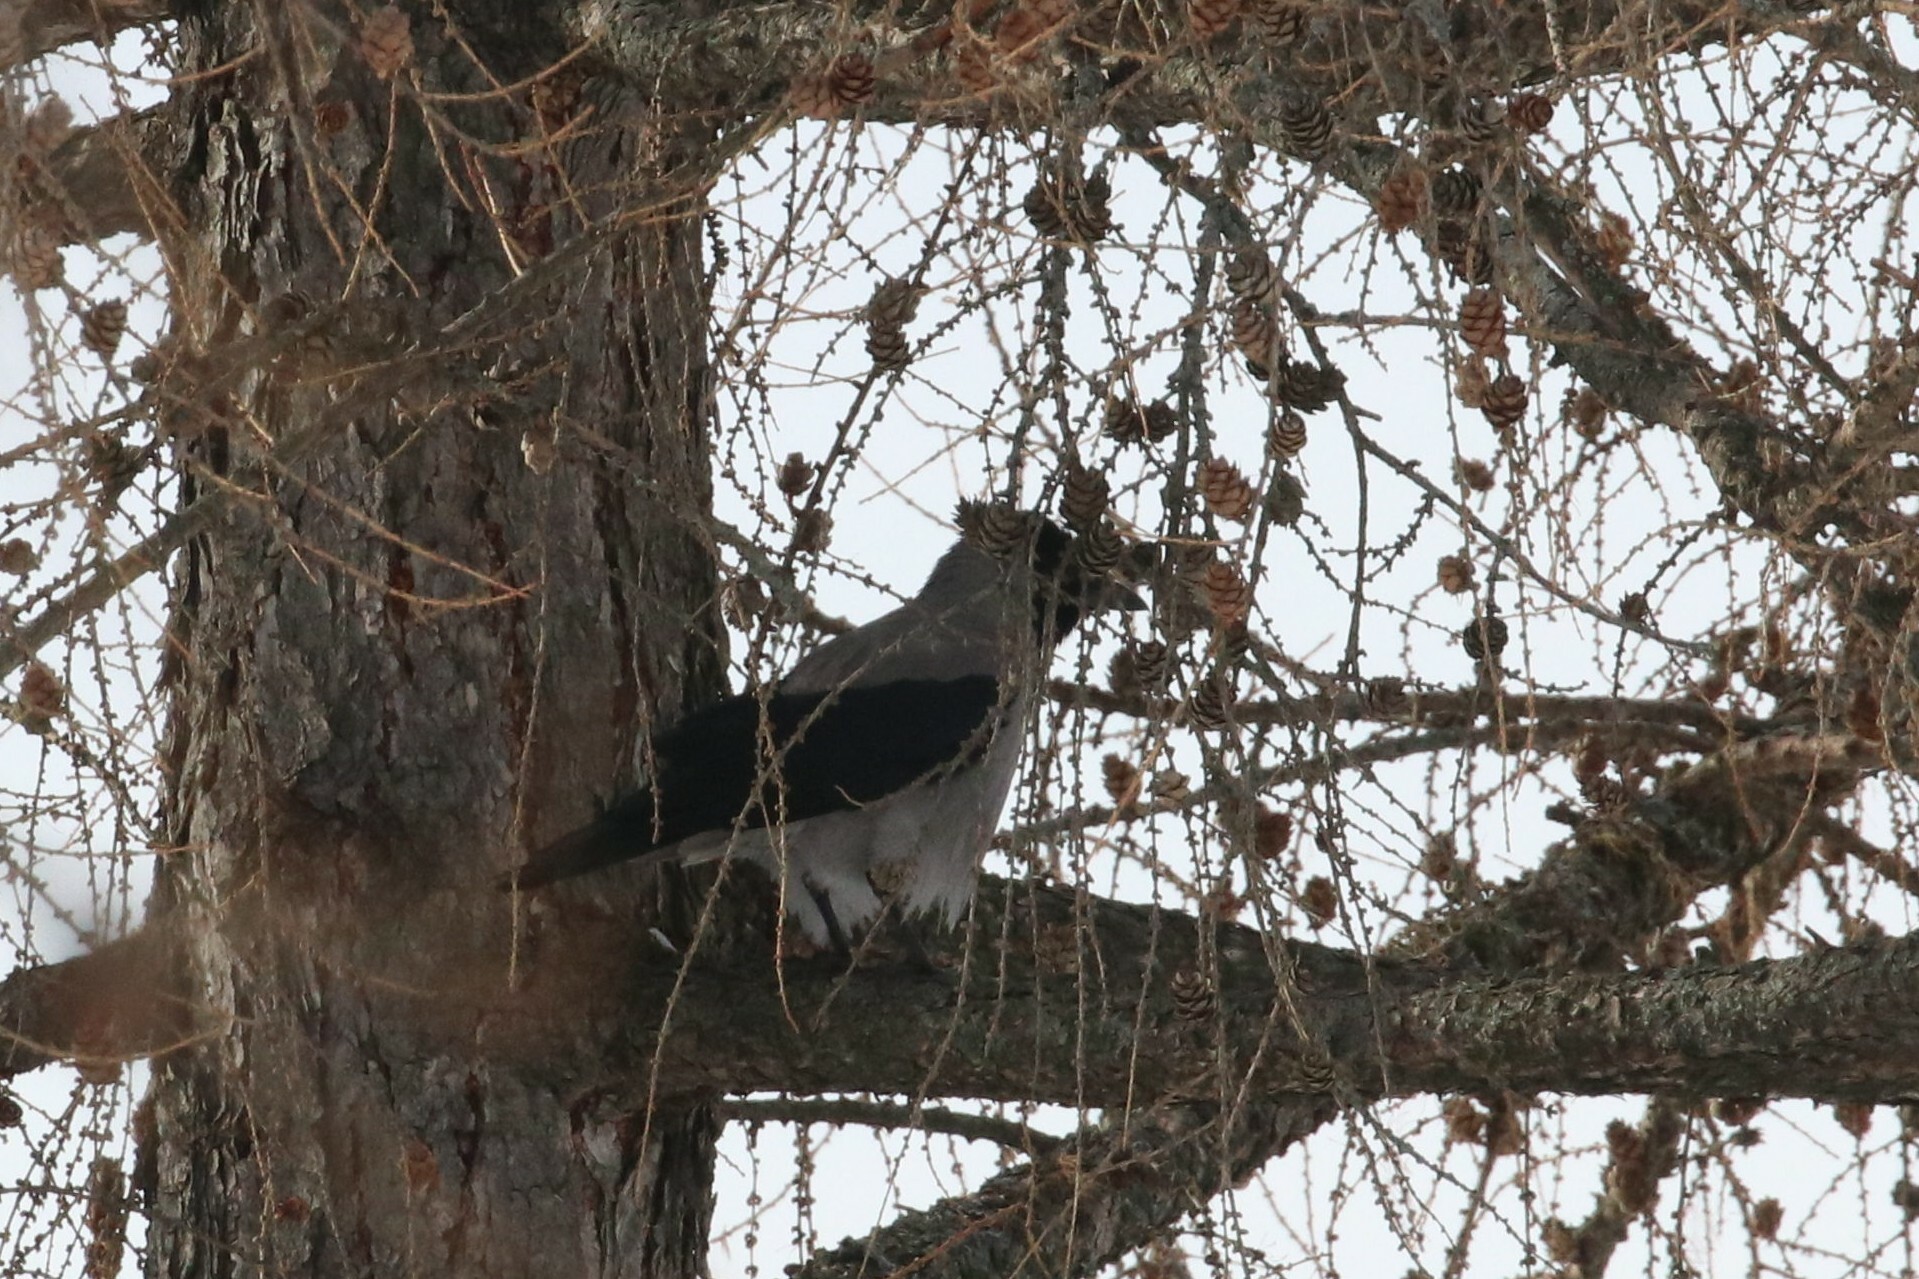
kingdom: Animalia
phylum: Chordata
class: Aves
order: Passeriformes
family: Corvidae
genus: Corvus
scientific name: Corvus cornix
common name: Hooded crow
